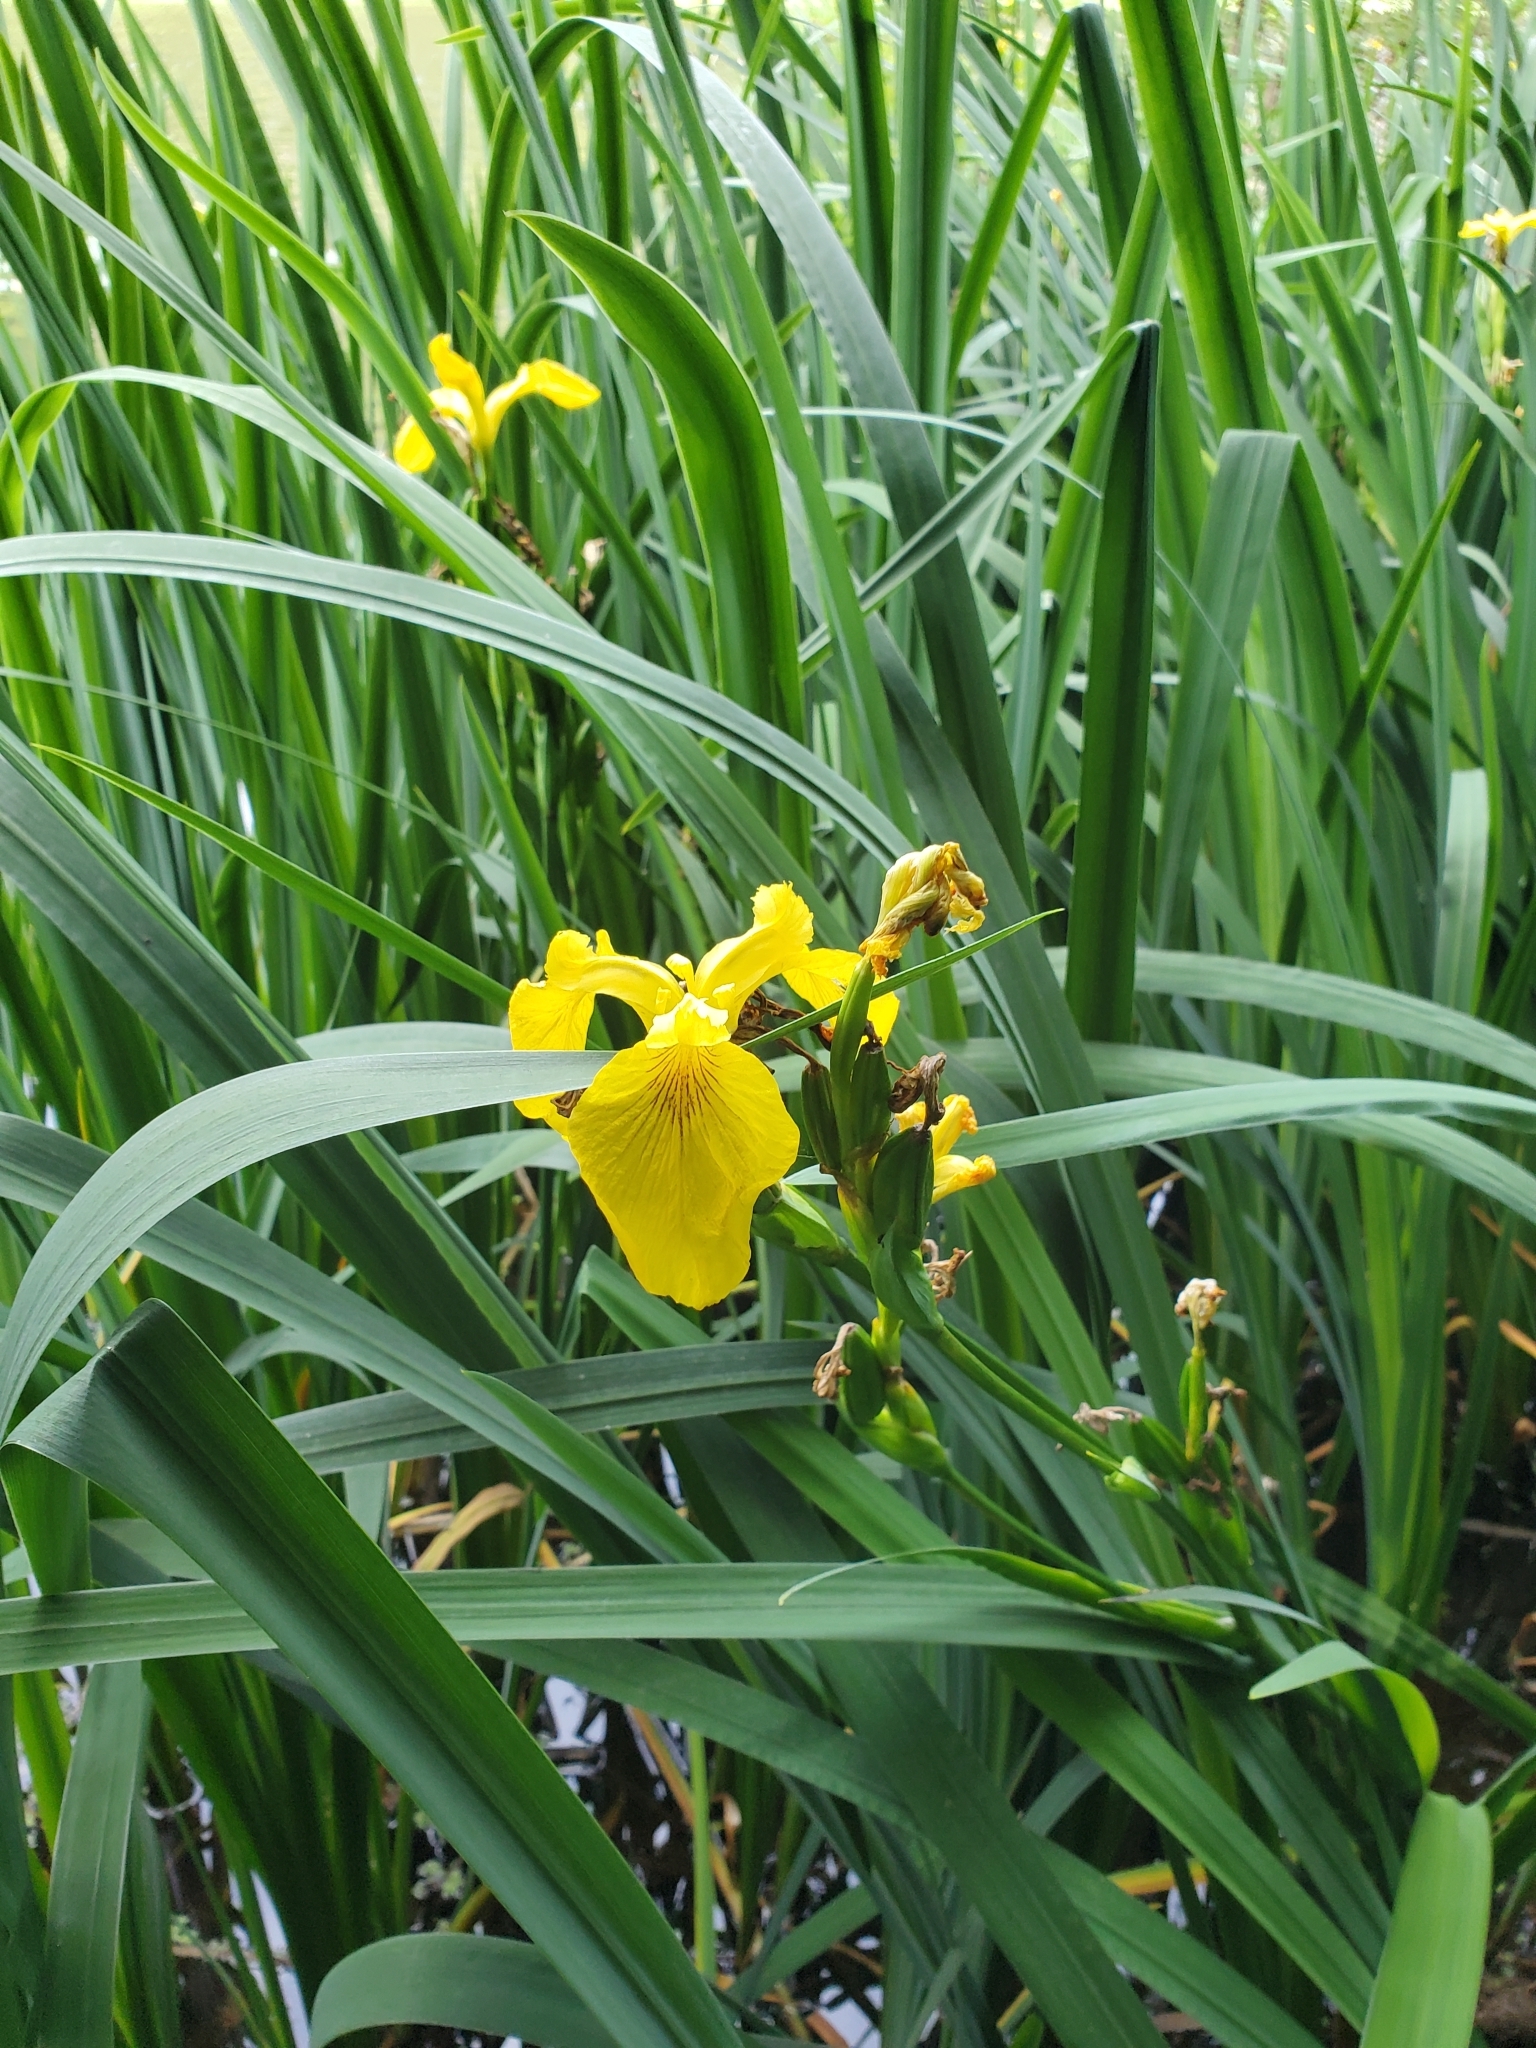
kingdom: Plantae
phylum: Tracheophyta
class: Liliopsida
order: Asparagales
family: Iridaceae
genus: Iris
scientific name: Iris pseudacorus
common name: Yellow flag
